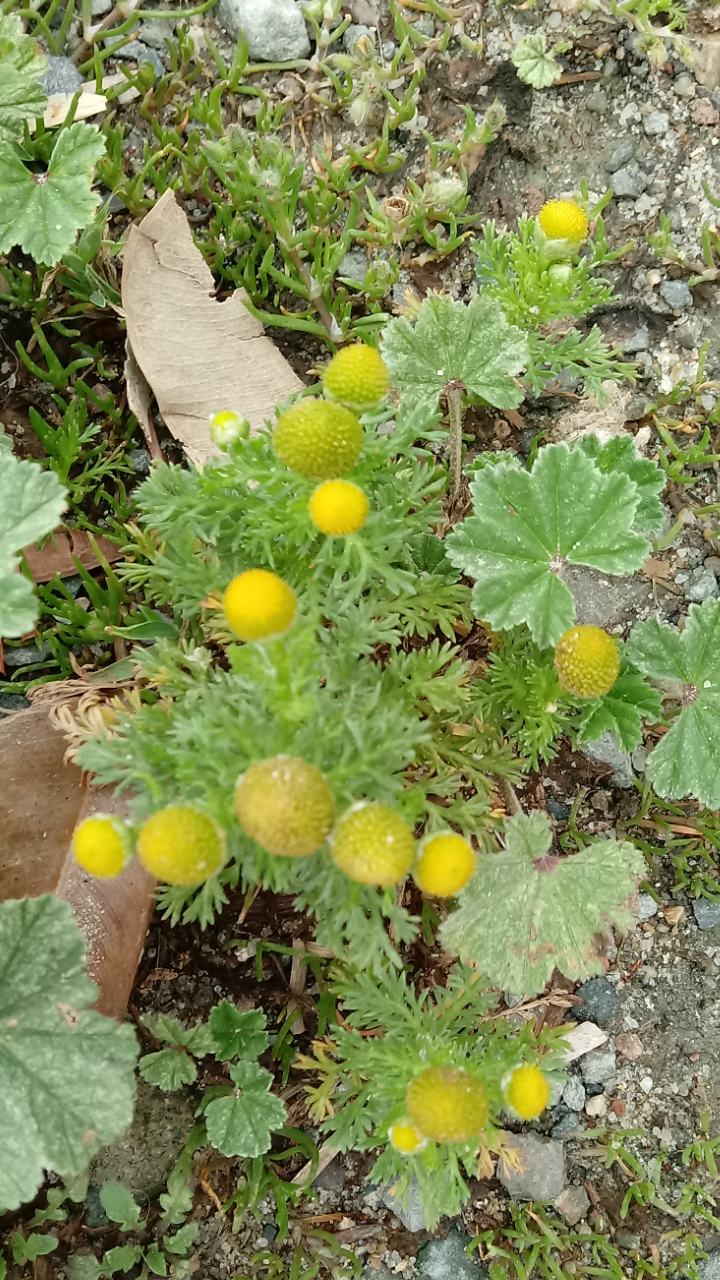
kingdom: Plantae
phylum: Tracheophyta
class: Magnoliopsida
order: Asterales
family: Asteraceae
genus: Matricaria
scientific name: Matricaria discoidea
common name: Disc mayweed
